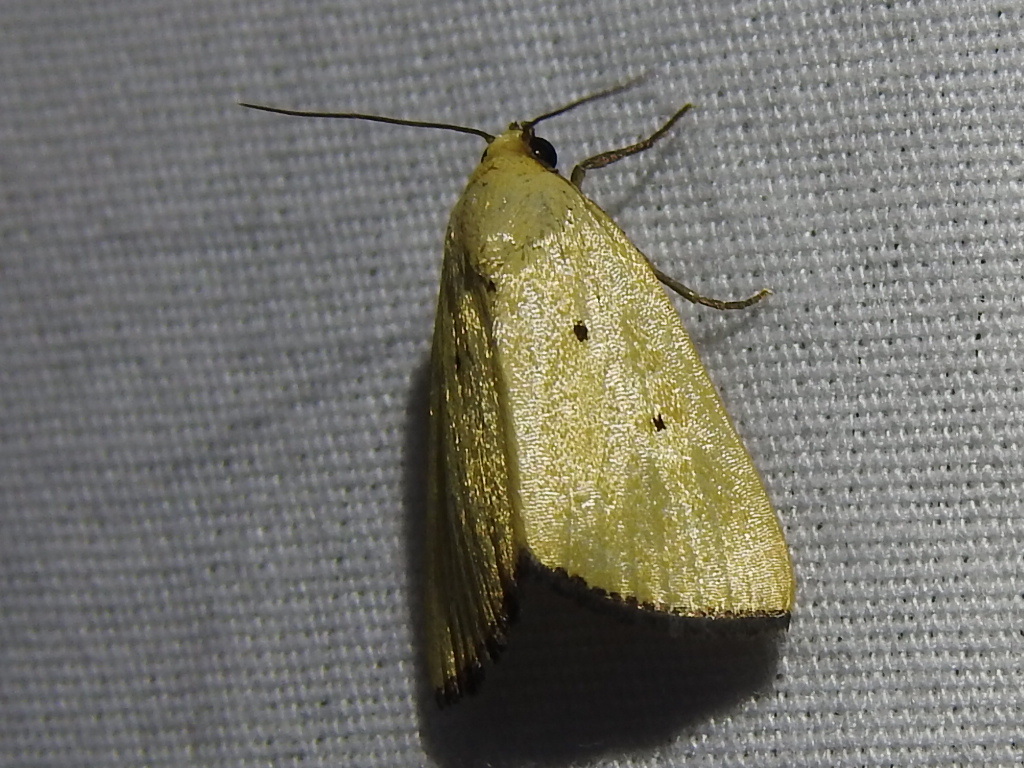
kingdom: Animalia
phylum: Arthropoda
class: Insecta
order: Lepidoptera
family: Noctuidae
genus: Marimatha
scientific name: Marimatha nigrofimbria
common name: Black-bordered lemon moth
